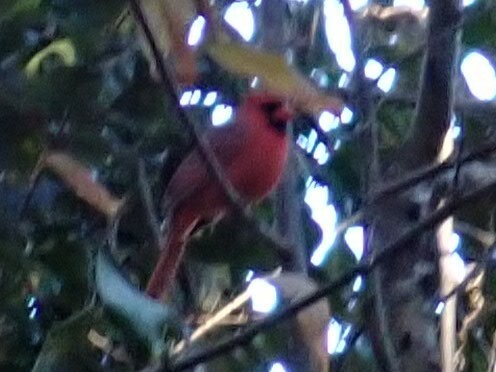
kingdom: Animalia
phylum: Chordata
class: Aves
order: Passeriformes
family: Cardinalidae
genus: Cardinalis
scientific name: Cardinalis cardinalis
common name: Northern cardinal
